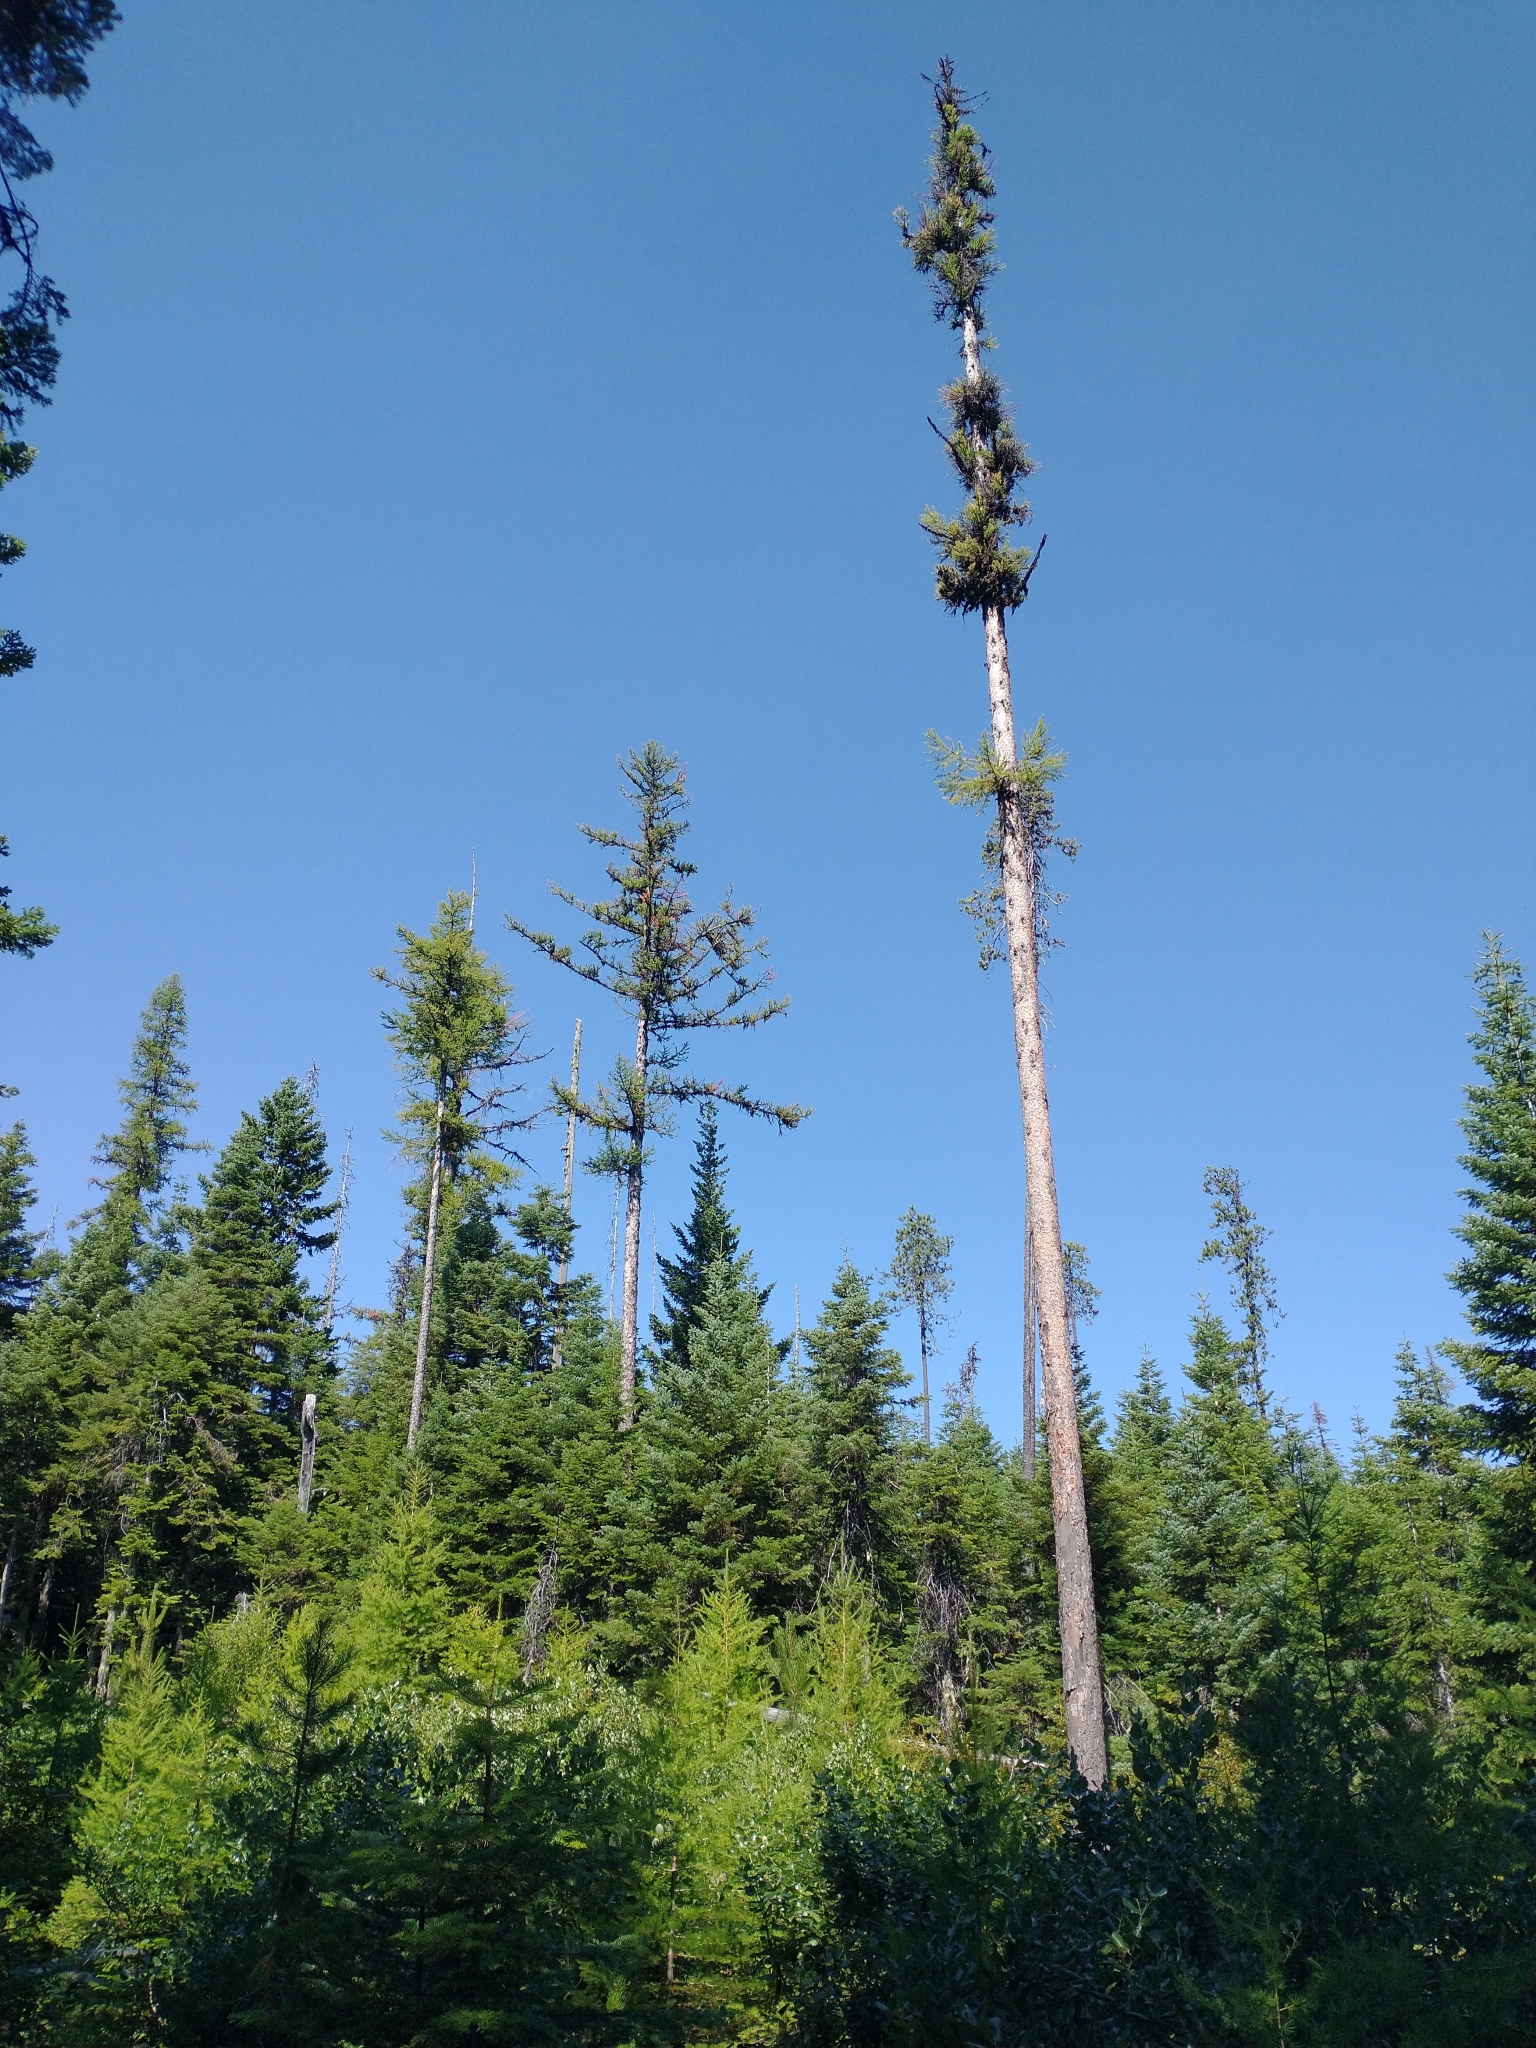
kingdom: Plantae
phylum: Tracheophyta
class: Pinopsida
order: Pinales
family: Pinaceae
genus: Larix
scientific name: Larix occidentalis
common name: Western larch
